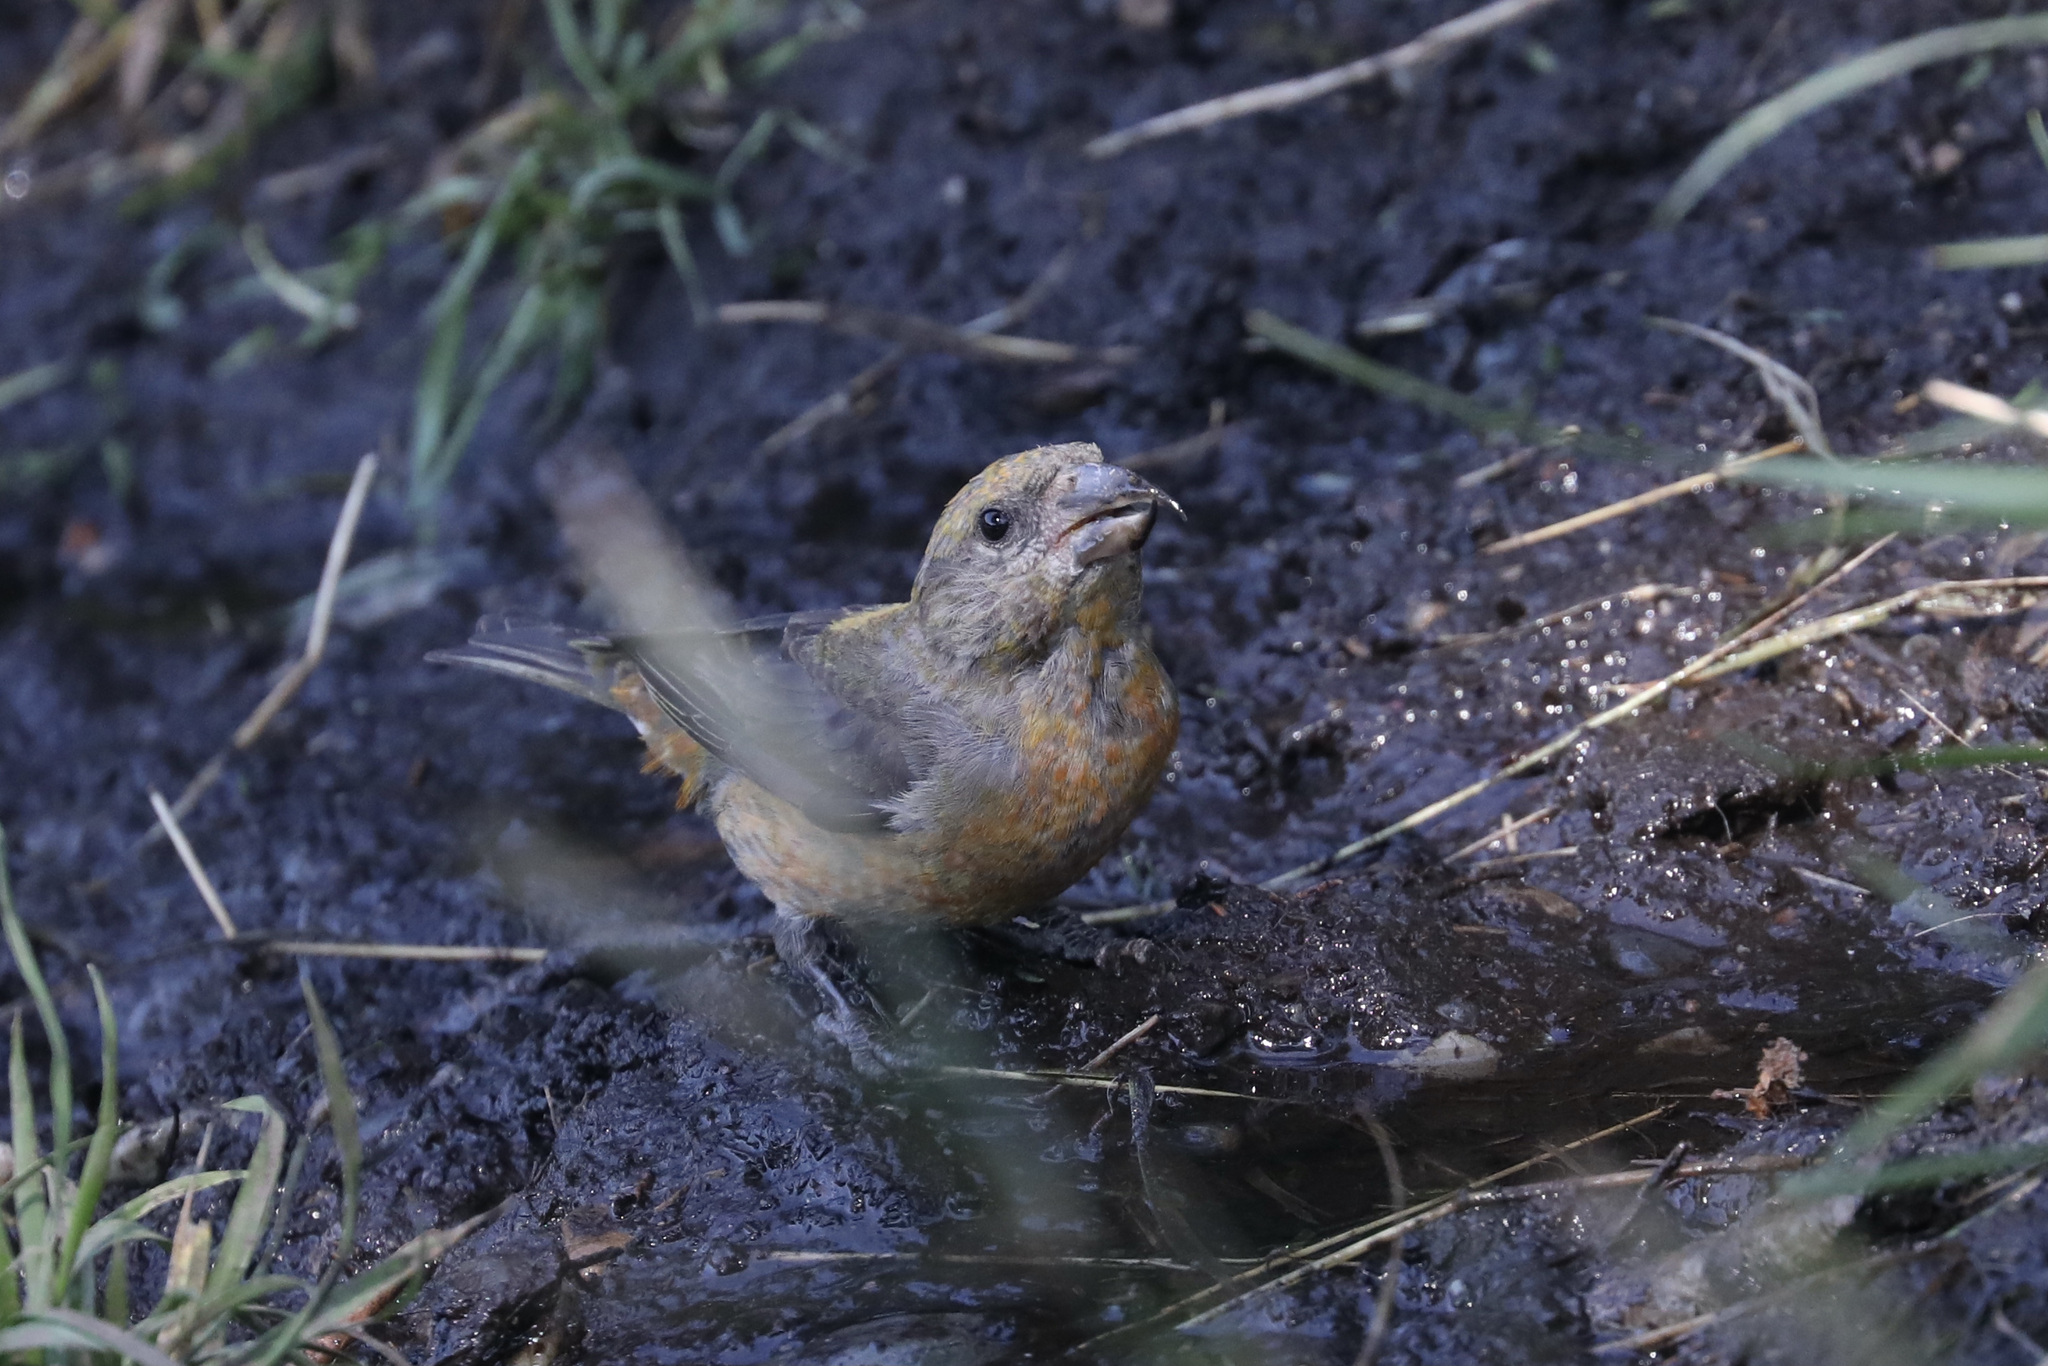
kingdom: Animalia
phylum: Chordata
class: Aves
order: Passeriformes
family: Fringillidae
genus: Loxia
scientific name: Loxia curvirostra
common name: Red crossbill
